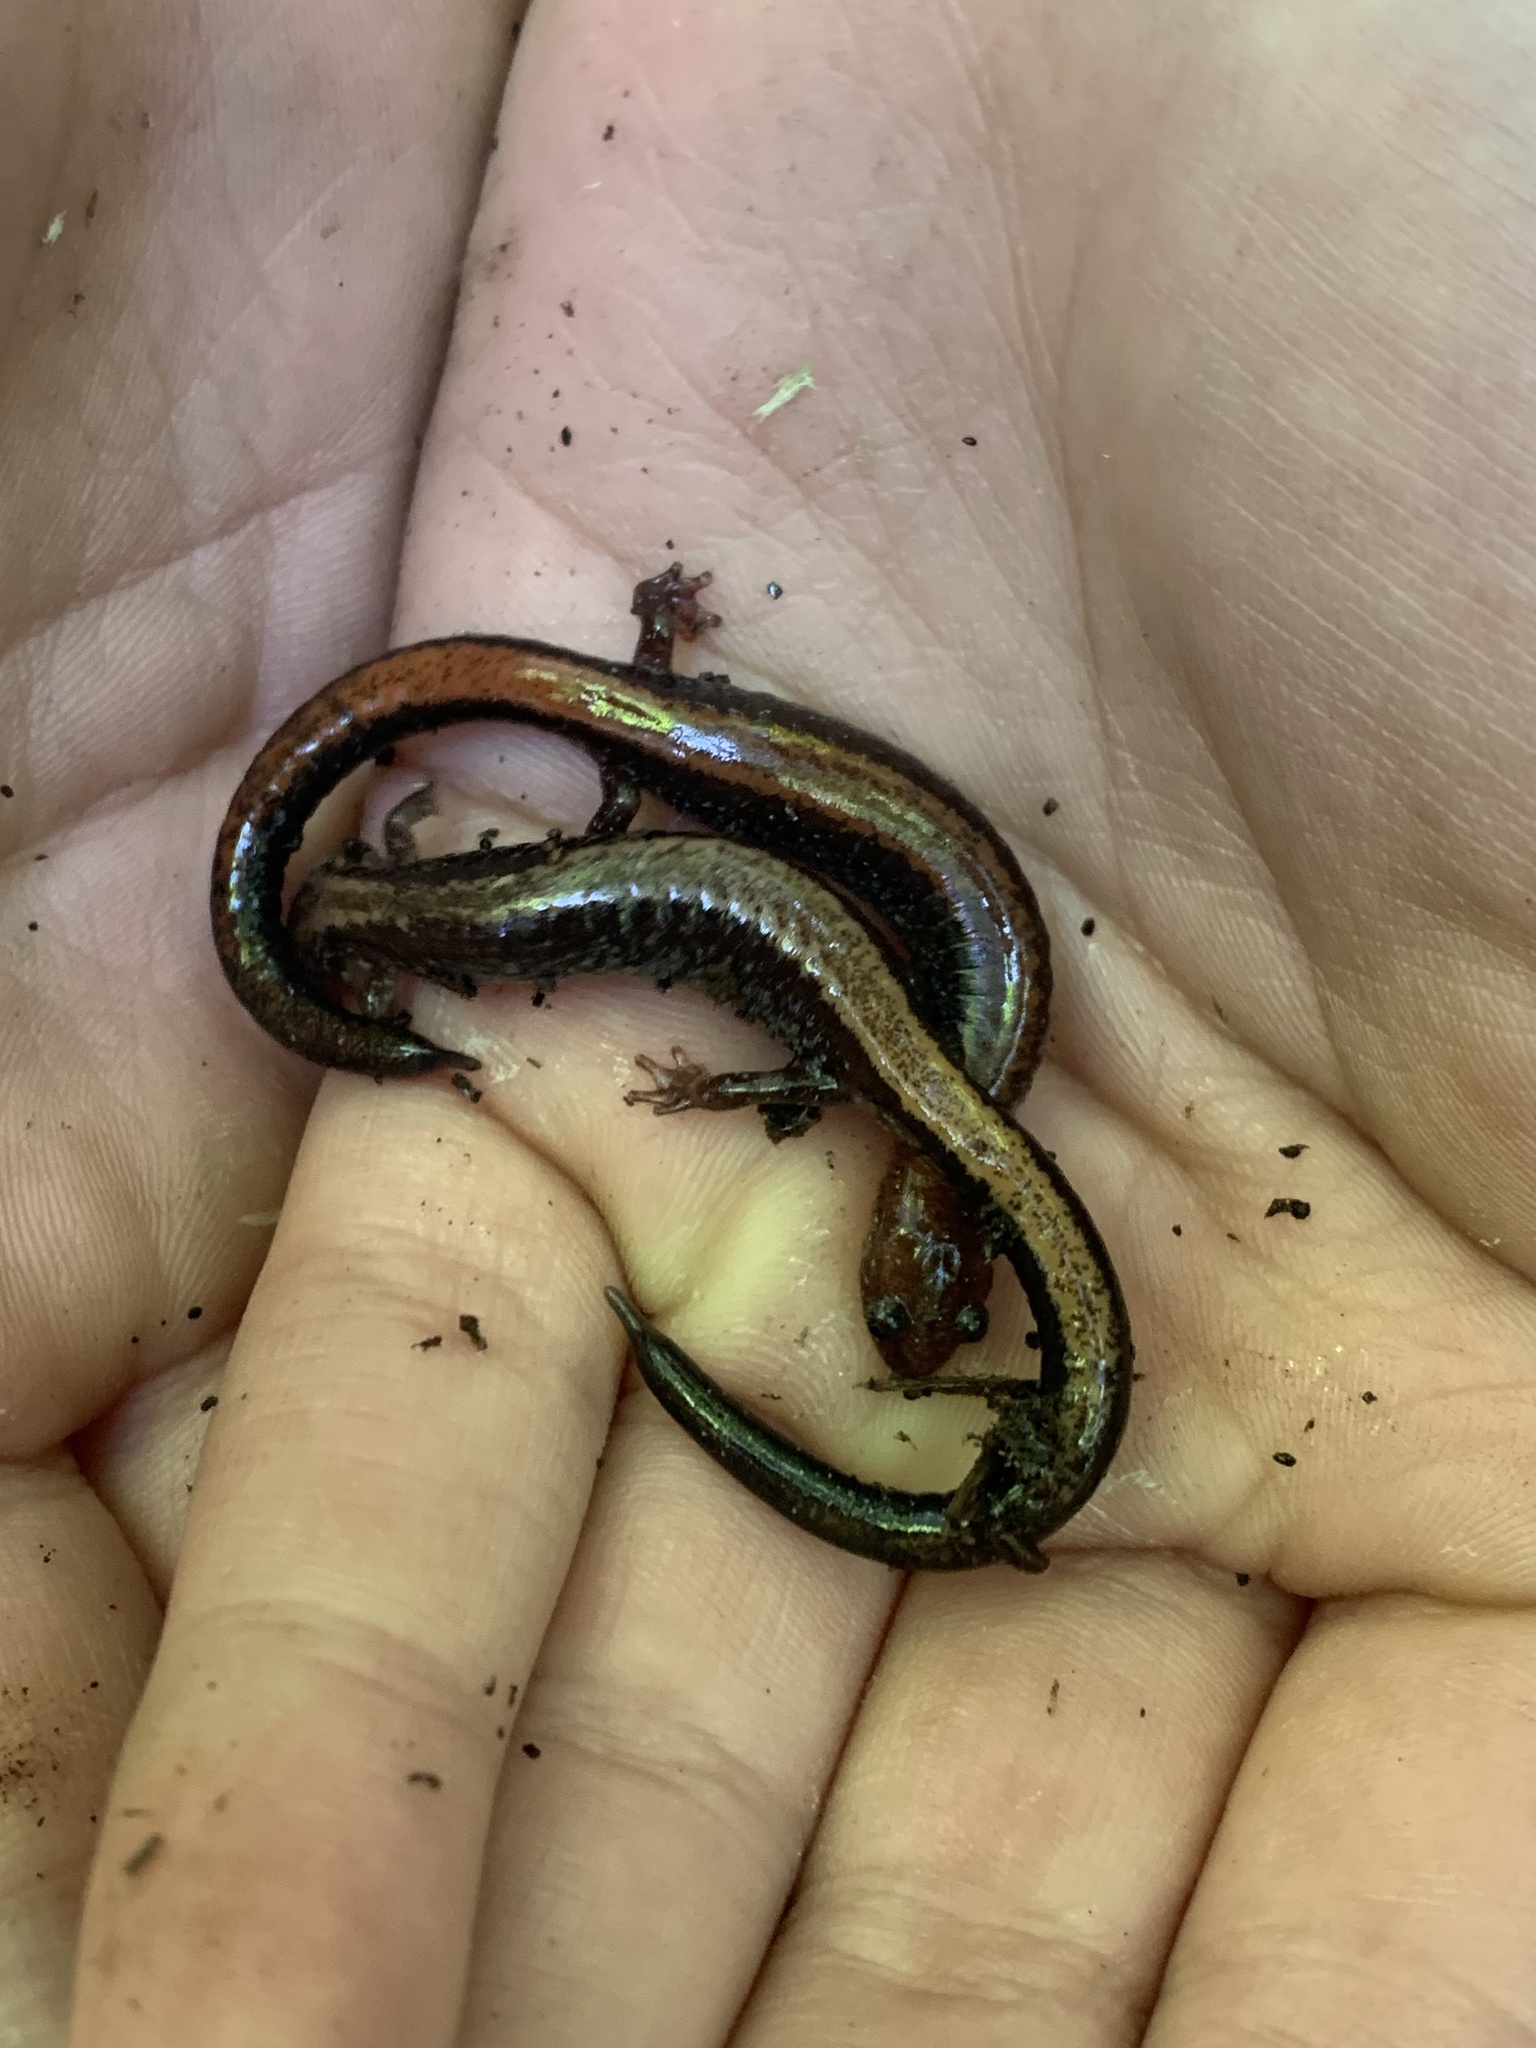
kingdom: Animalia
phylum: Chordata
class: Amphibia
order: Caudata
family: Plethodontidae
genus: Plethodon
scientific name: Plethodon cinereus
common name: Redback salamander
